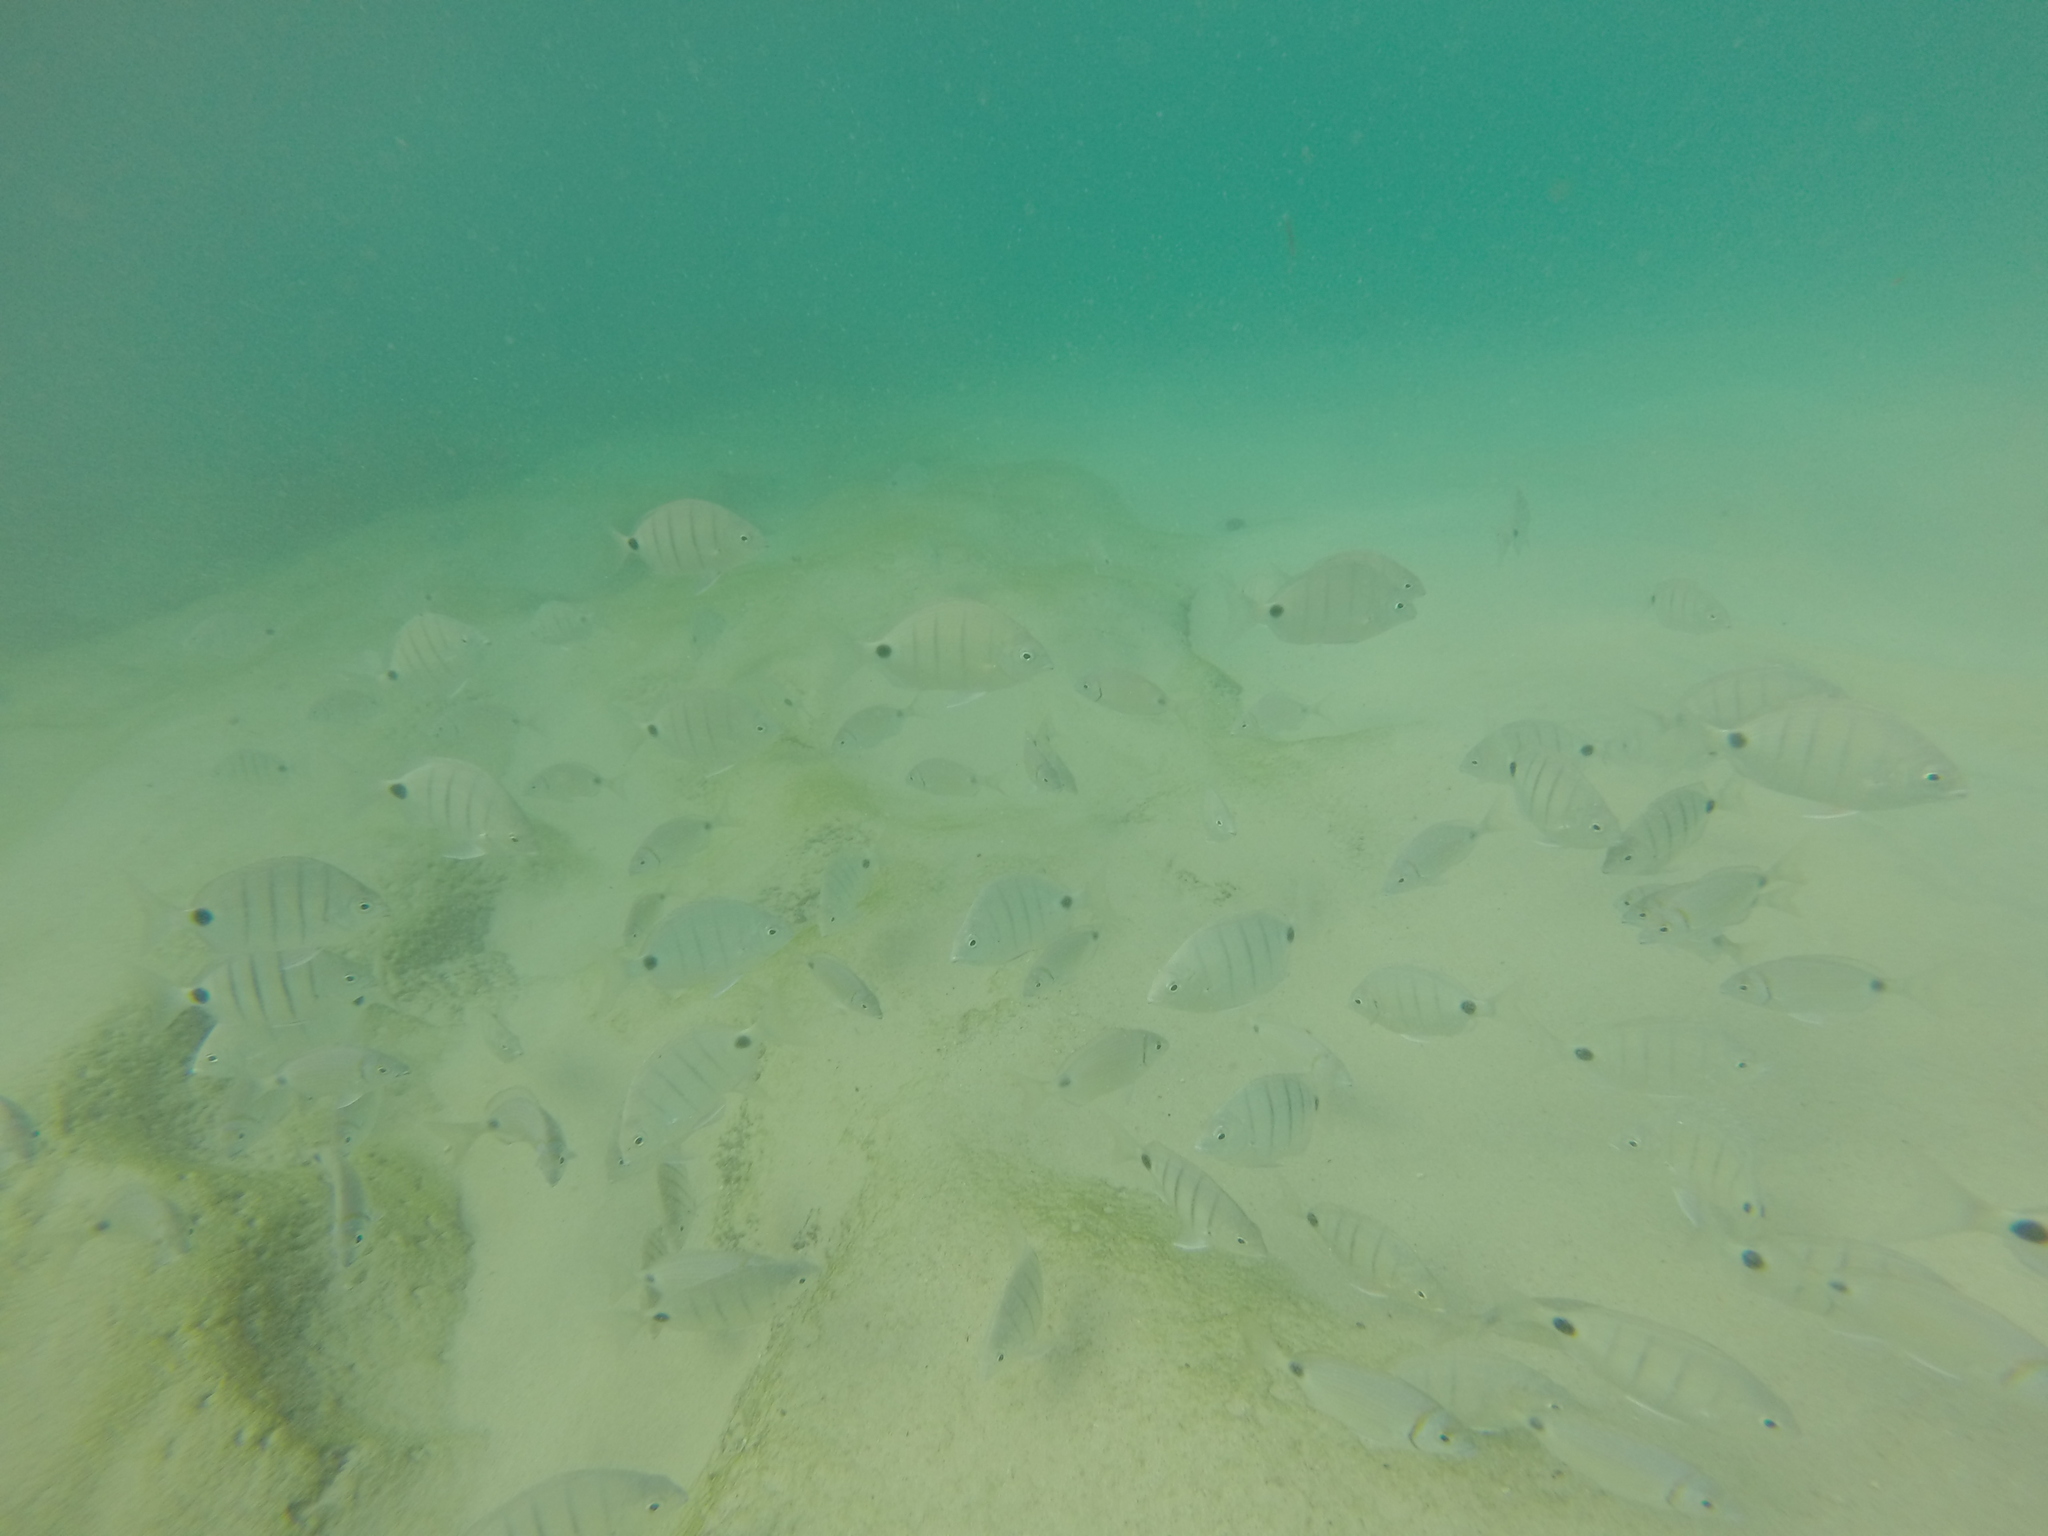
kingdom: Animalia
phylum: Chordata
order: Perciformes
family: Sparidae
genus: Diplodus
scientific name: Diplodus lineatus
